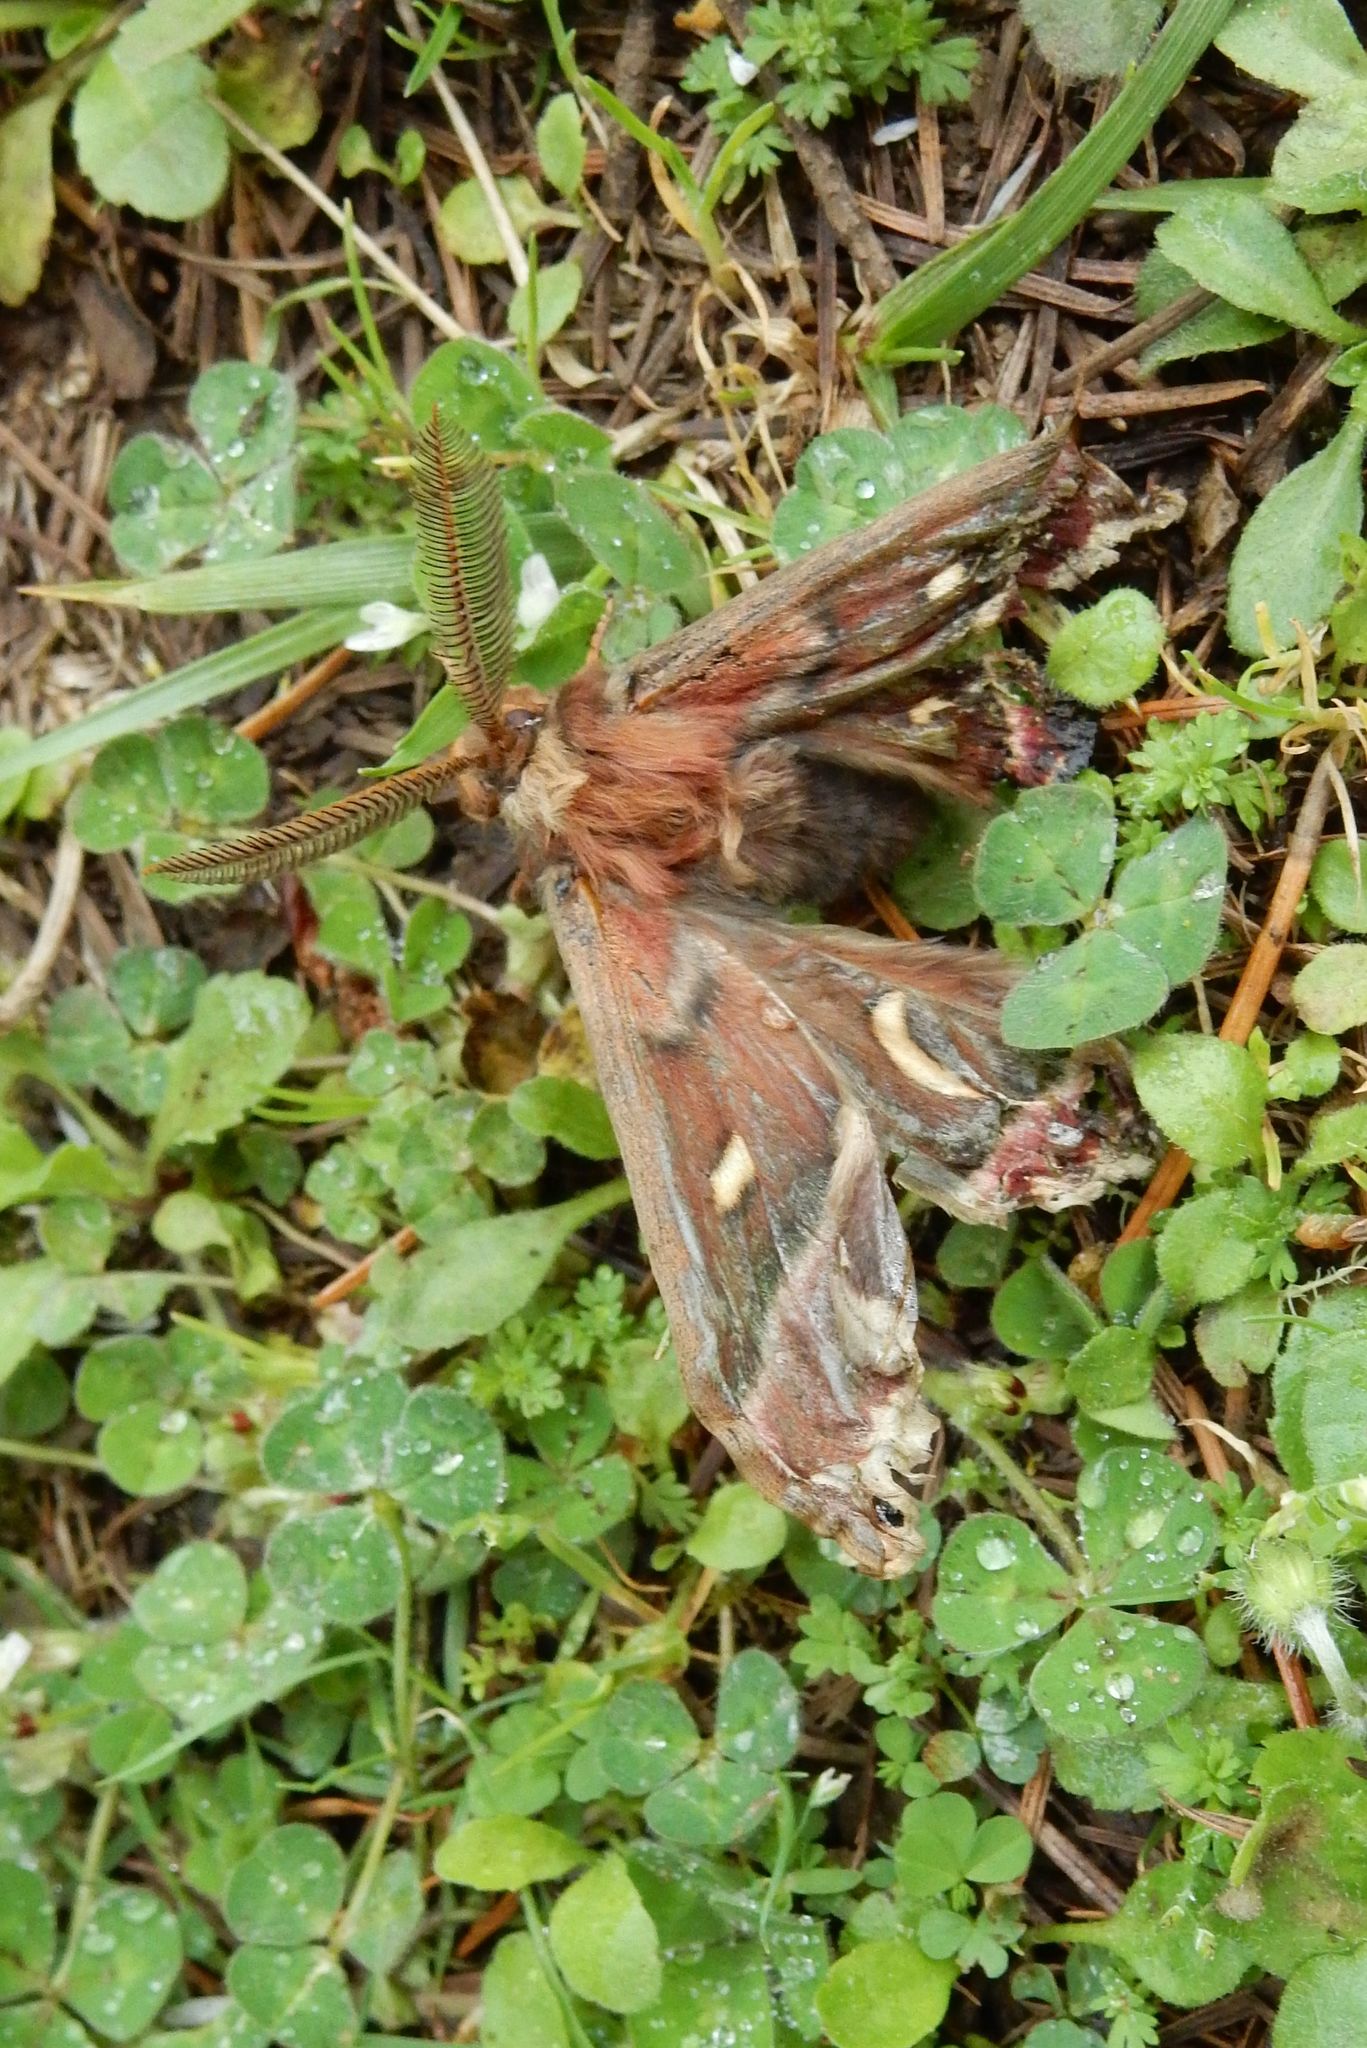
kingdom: Animalia
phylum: Arthropoda
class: Insecta
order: Lepidoptera
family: Saturniidae
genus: Hyalophora
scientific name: Hyalophora euryalus
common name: Ceanothus silkmoth
